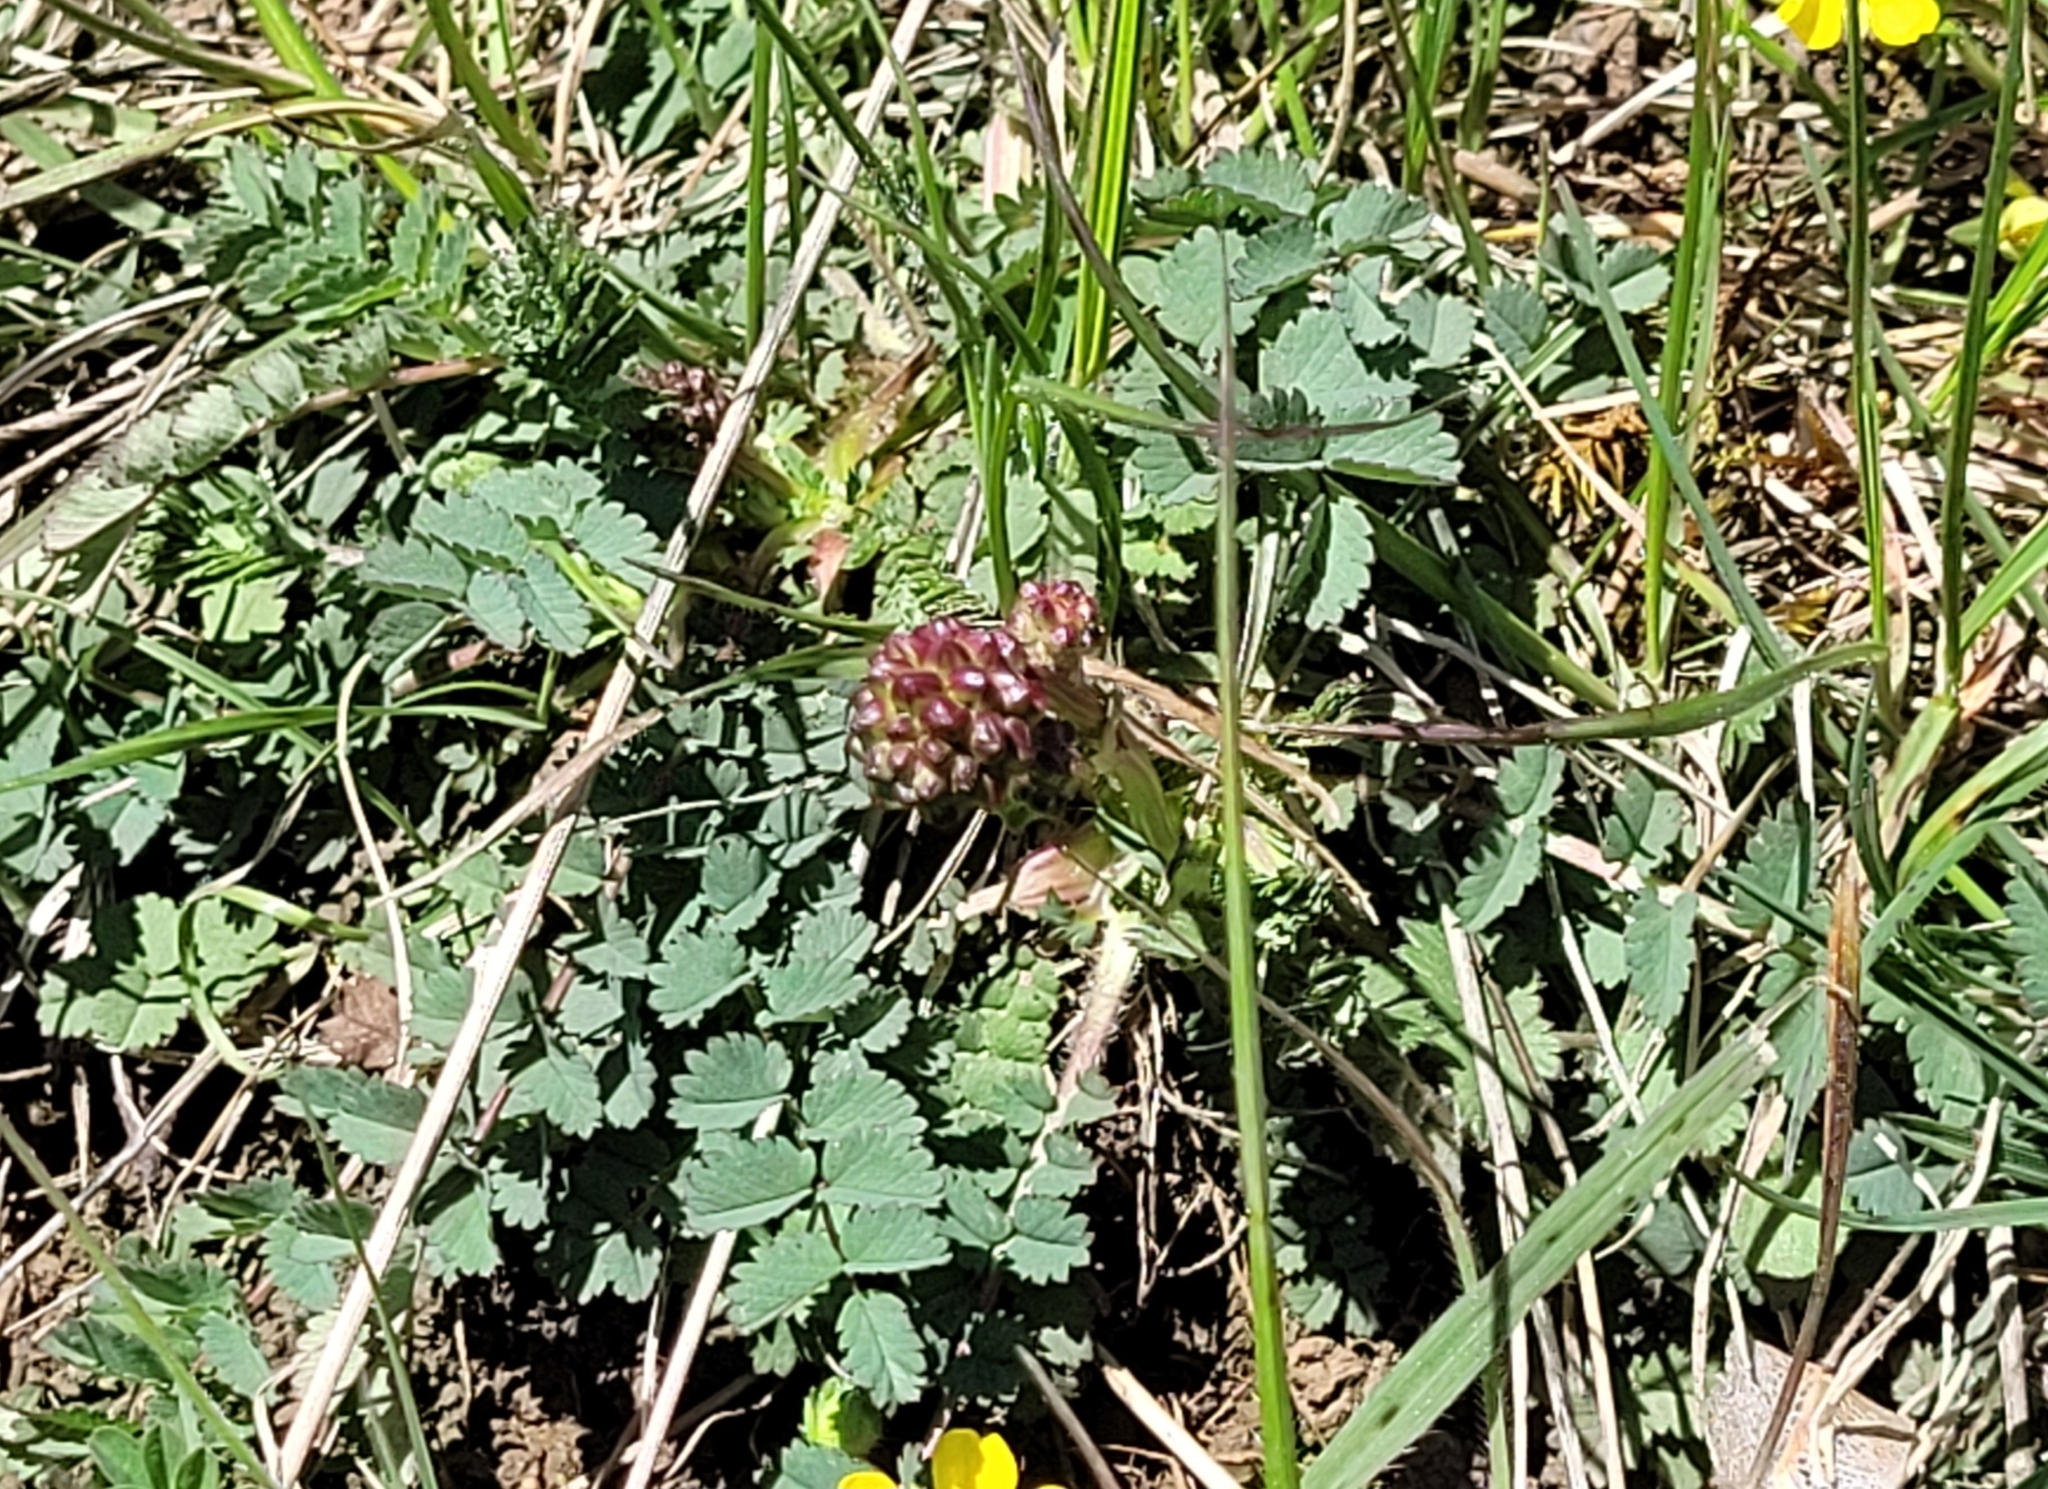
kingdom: Plantae
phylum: Tracheophyta
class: Magnoliopsida
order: Rosales
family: Rosaceae
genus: Poterium
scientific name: Poterium sanguisorba
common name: Salad burnet
